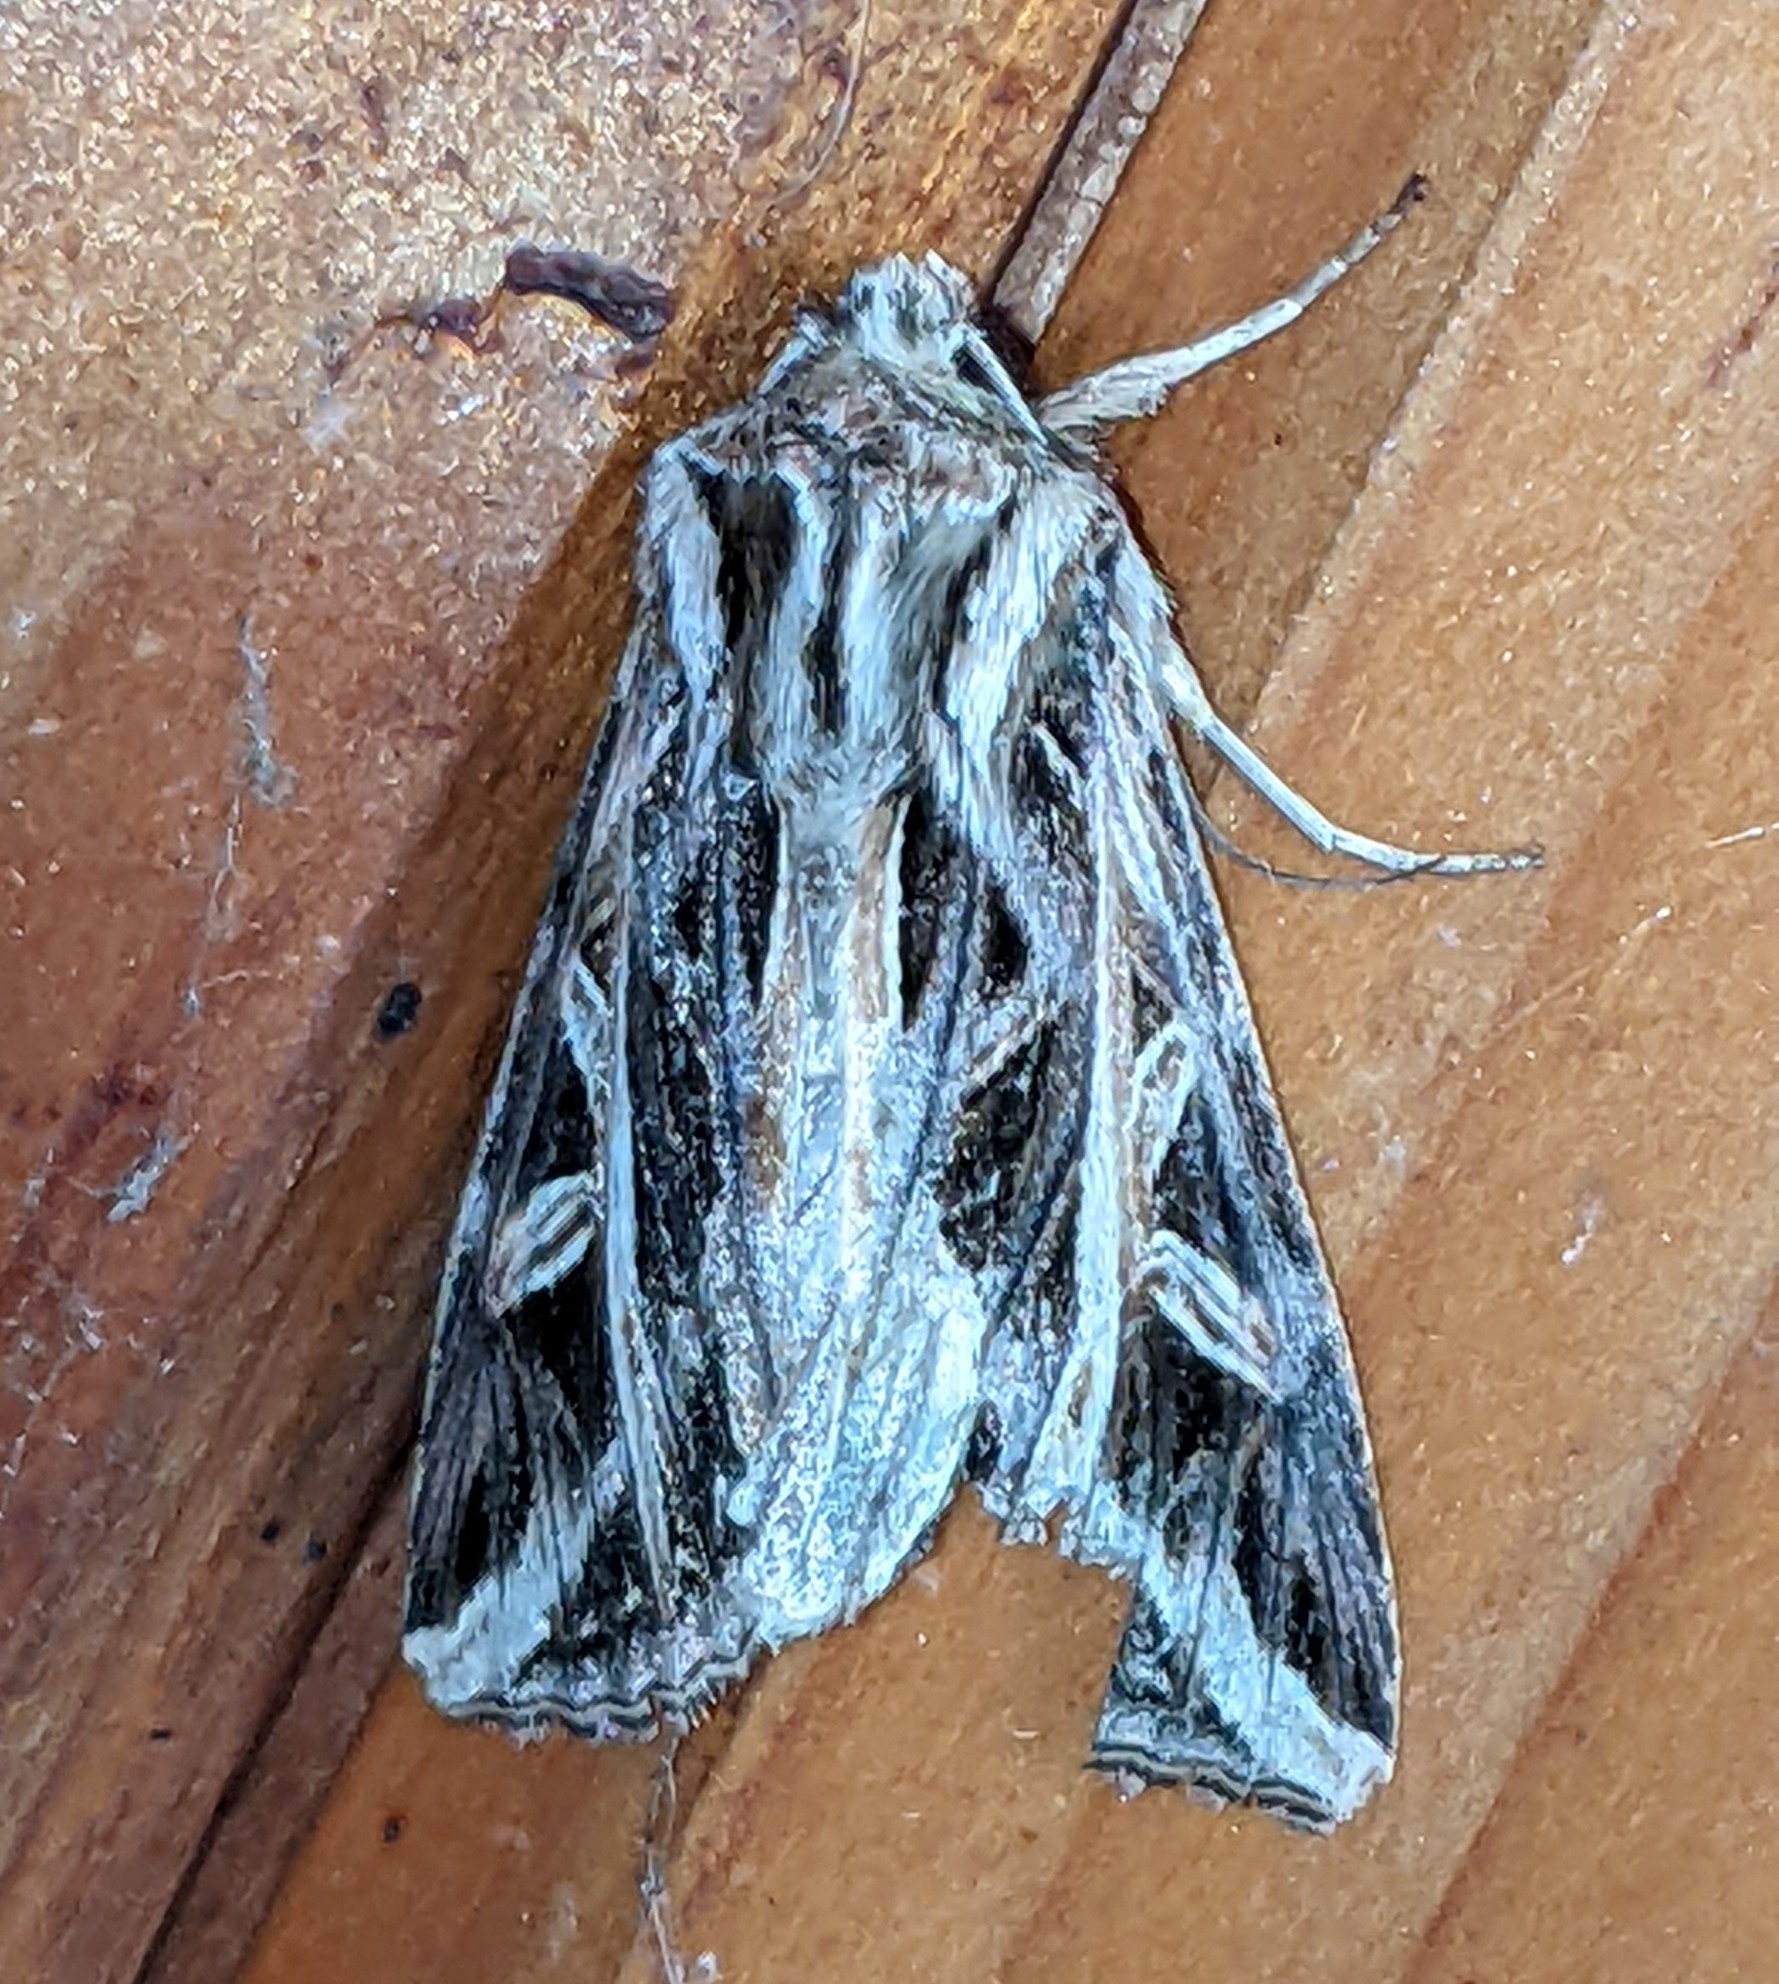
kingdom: Animalia
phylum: Arthropoda
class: Insecta
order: Lepidoptera
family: Noctuidae
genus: Dargida
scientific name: Dargida procinctus
